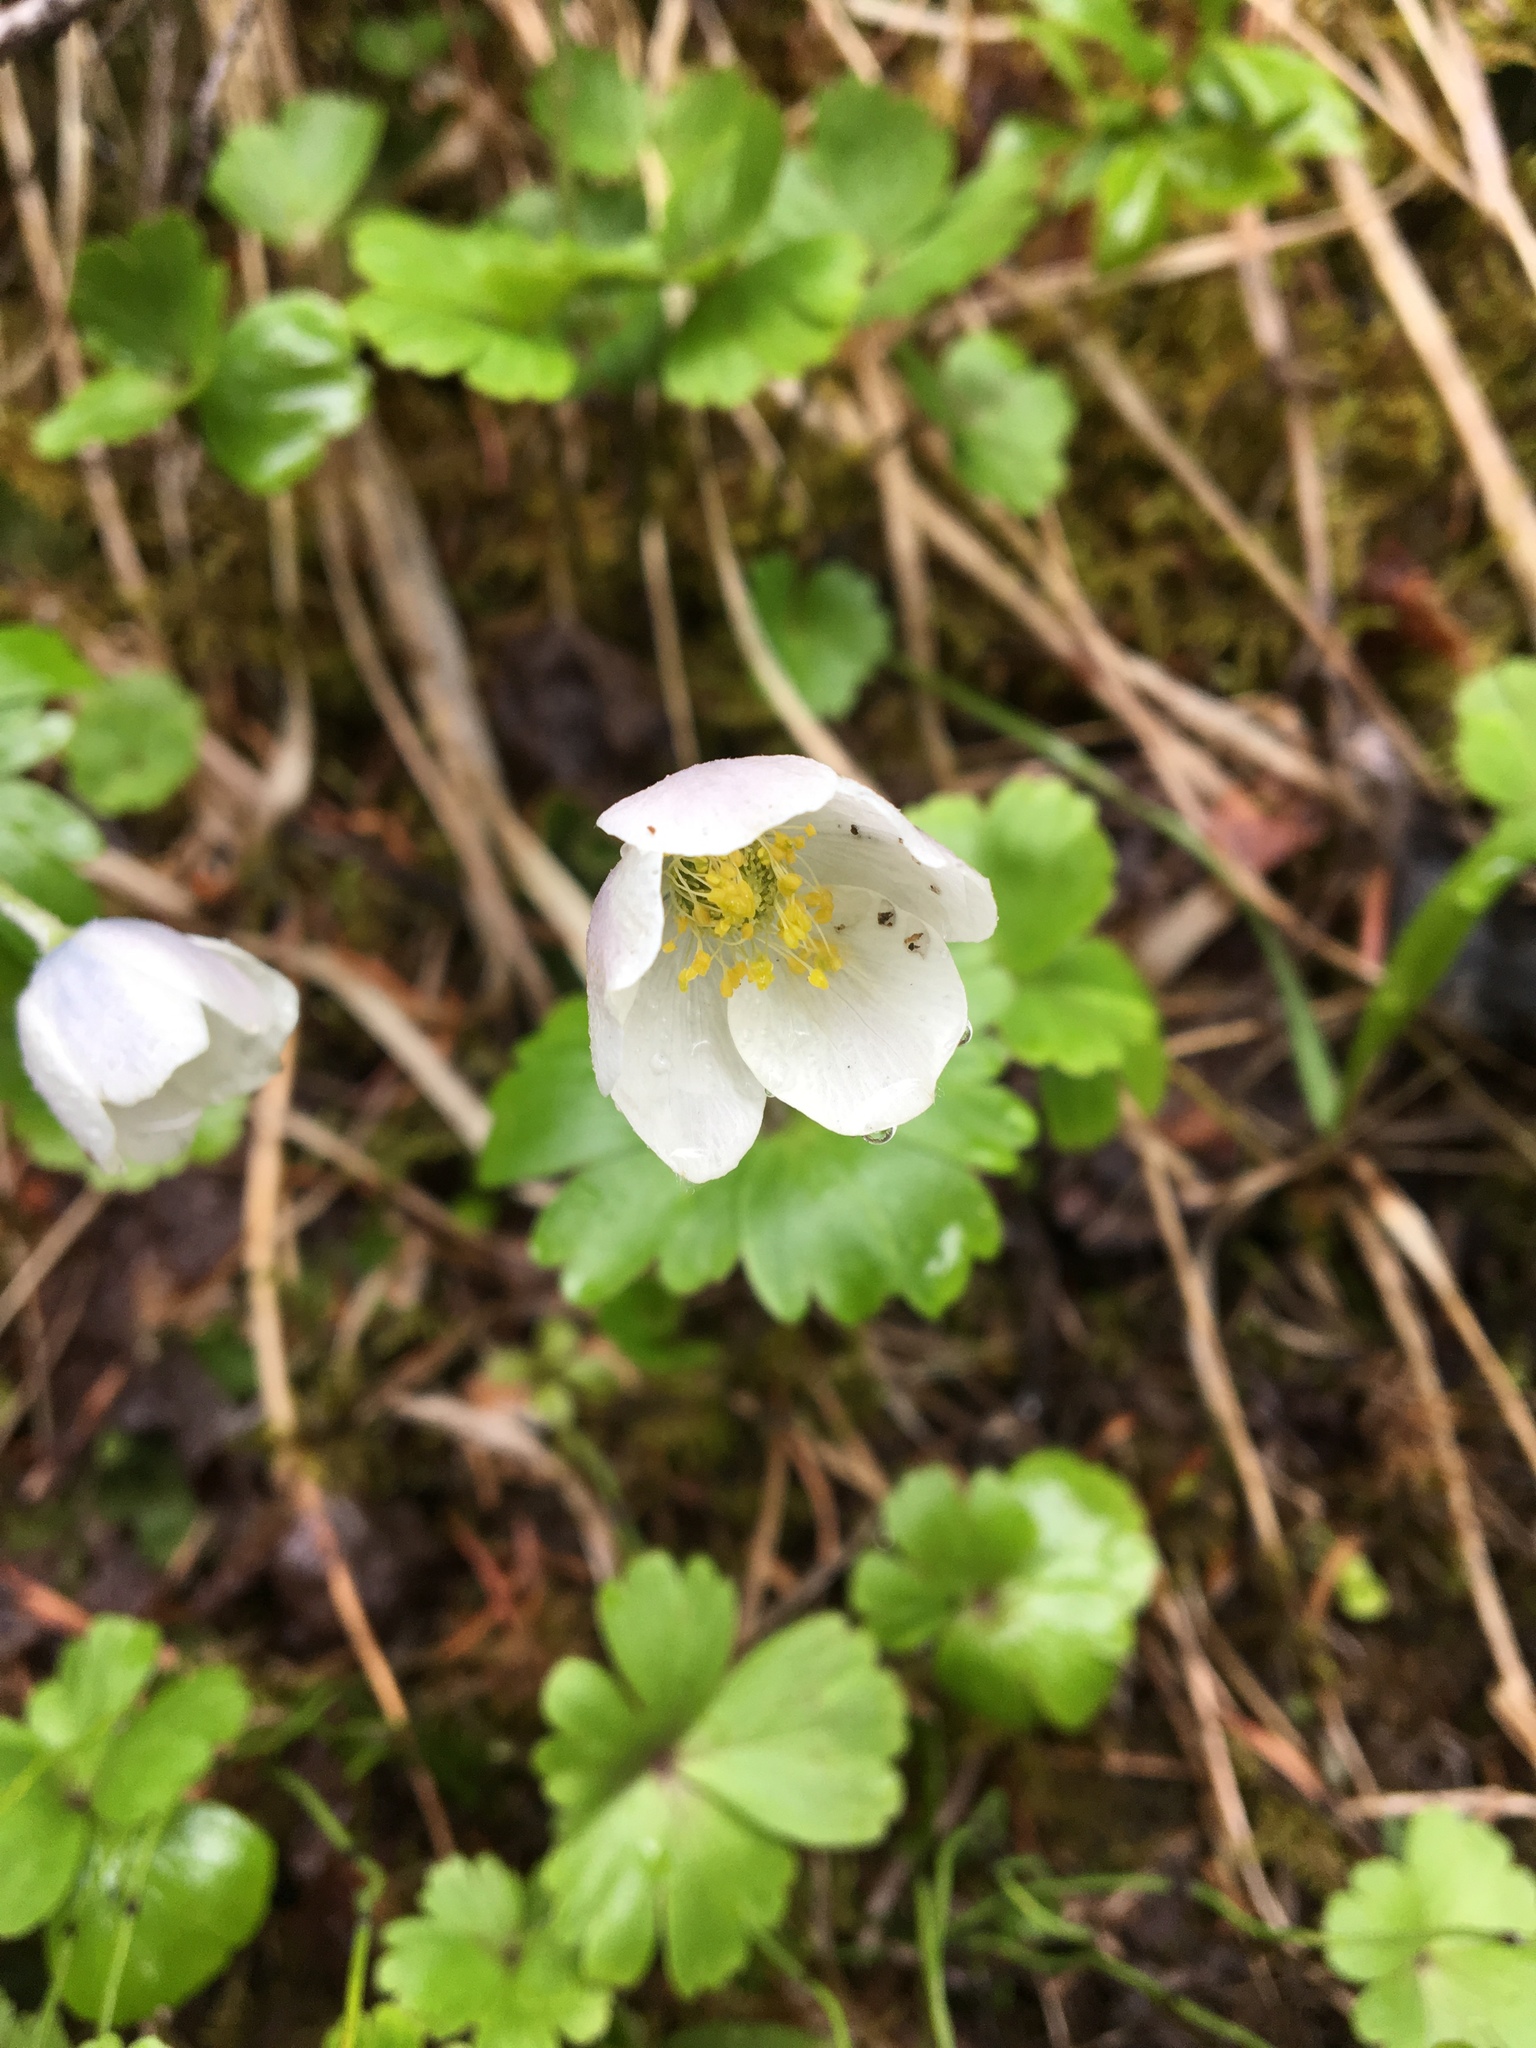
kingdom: Plantae
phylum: Tracheophyta
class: Magnoliopsida
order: Ranunculales
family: Ranunculaceae
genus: Anemone
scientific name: Anemone parviflora
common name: Northern anemone
